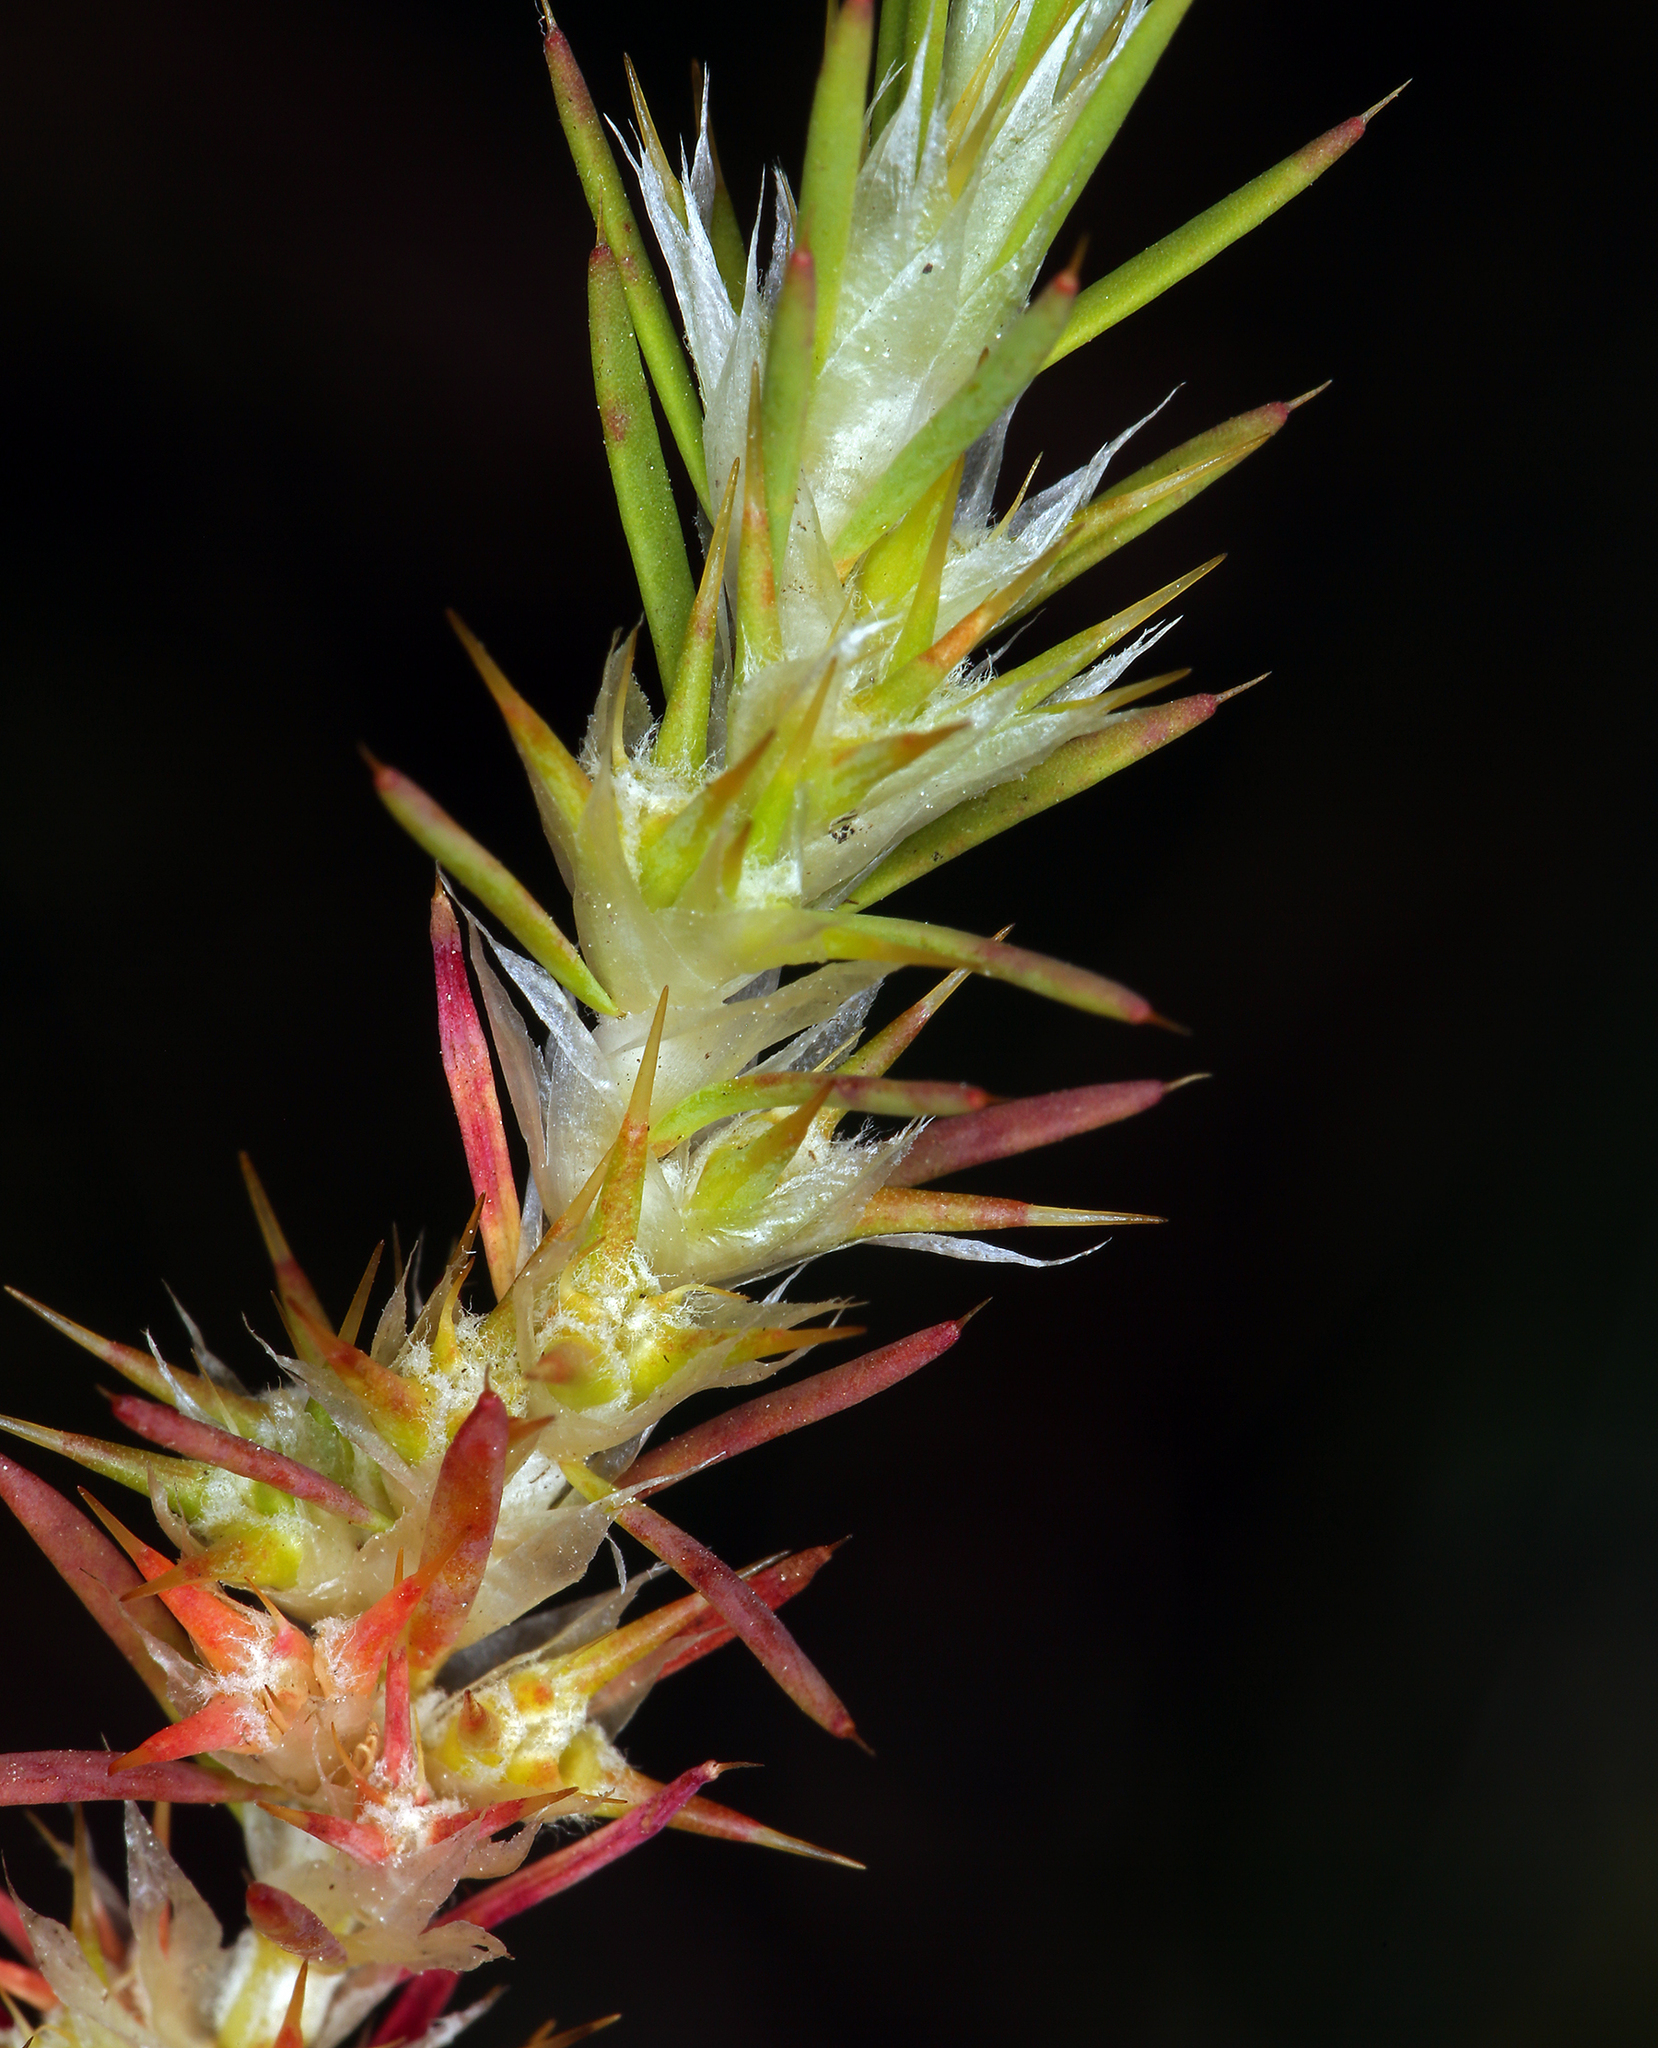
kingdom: Plantae
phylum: Tracheophyta
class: Magnoliopsida
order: Caryophyllales
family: Caryophyllaceae
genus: Cardionema
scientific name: Cardionema ramosissima
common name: Sandcarpet
